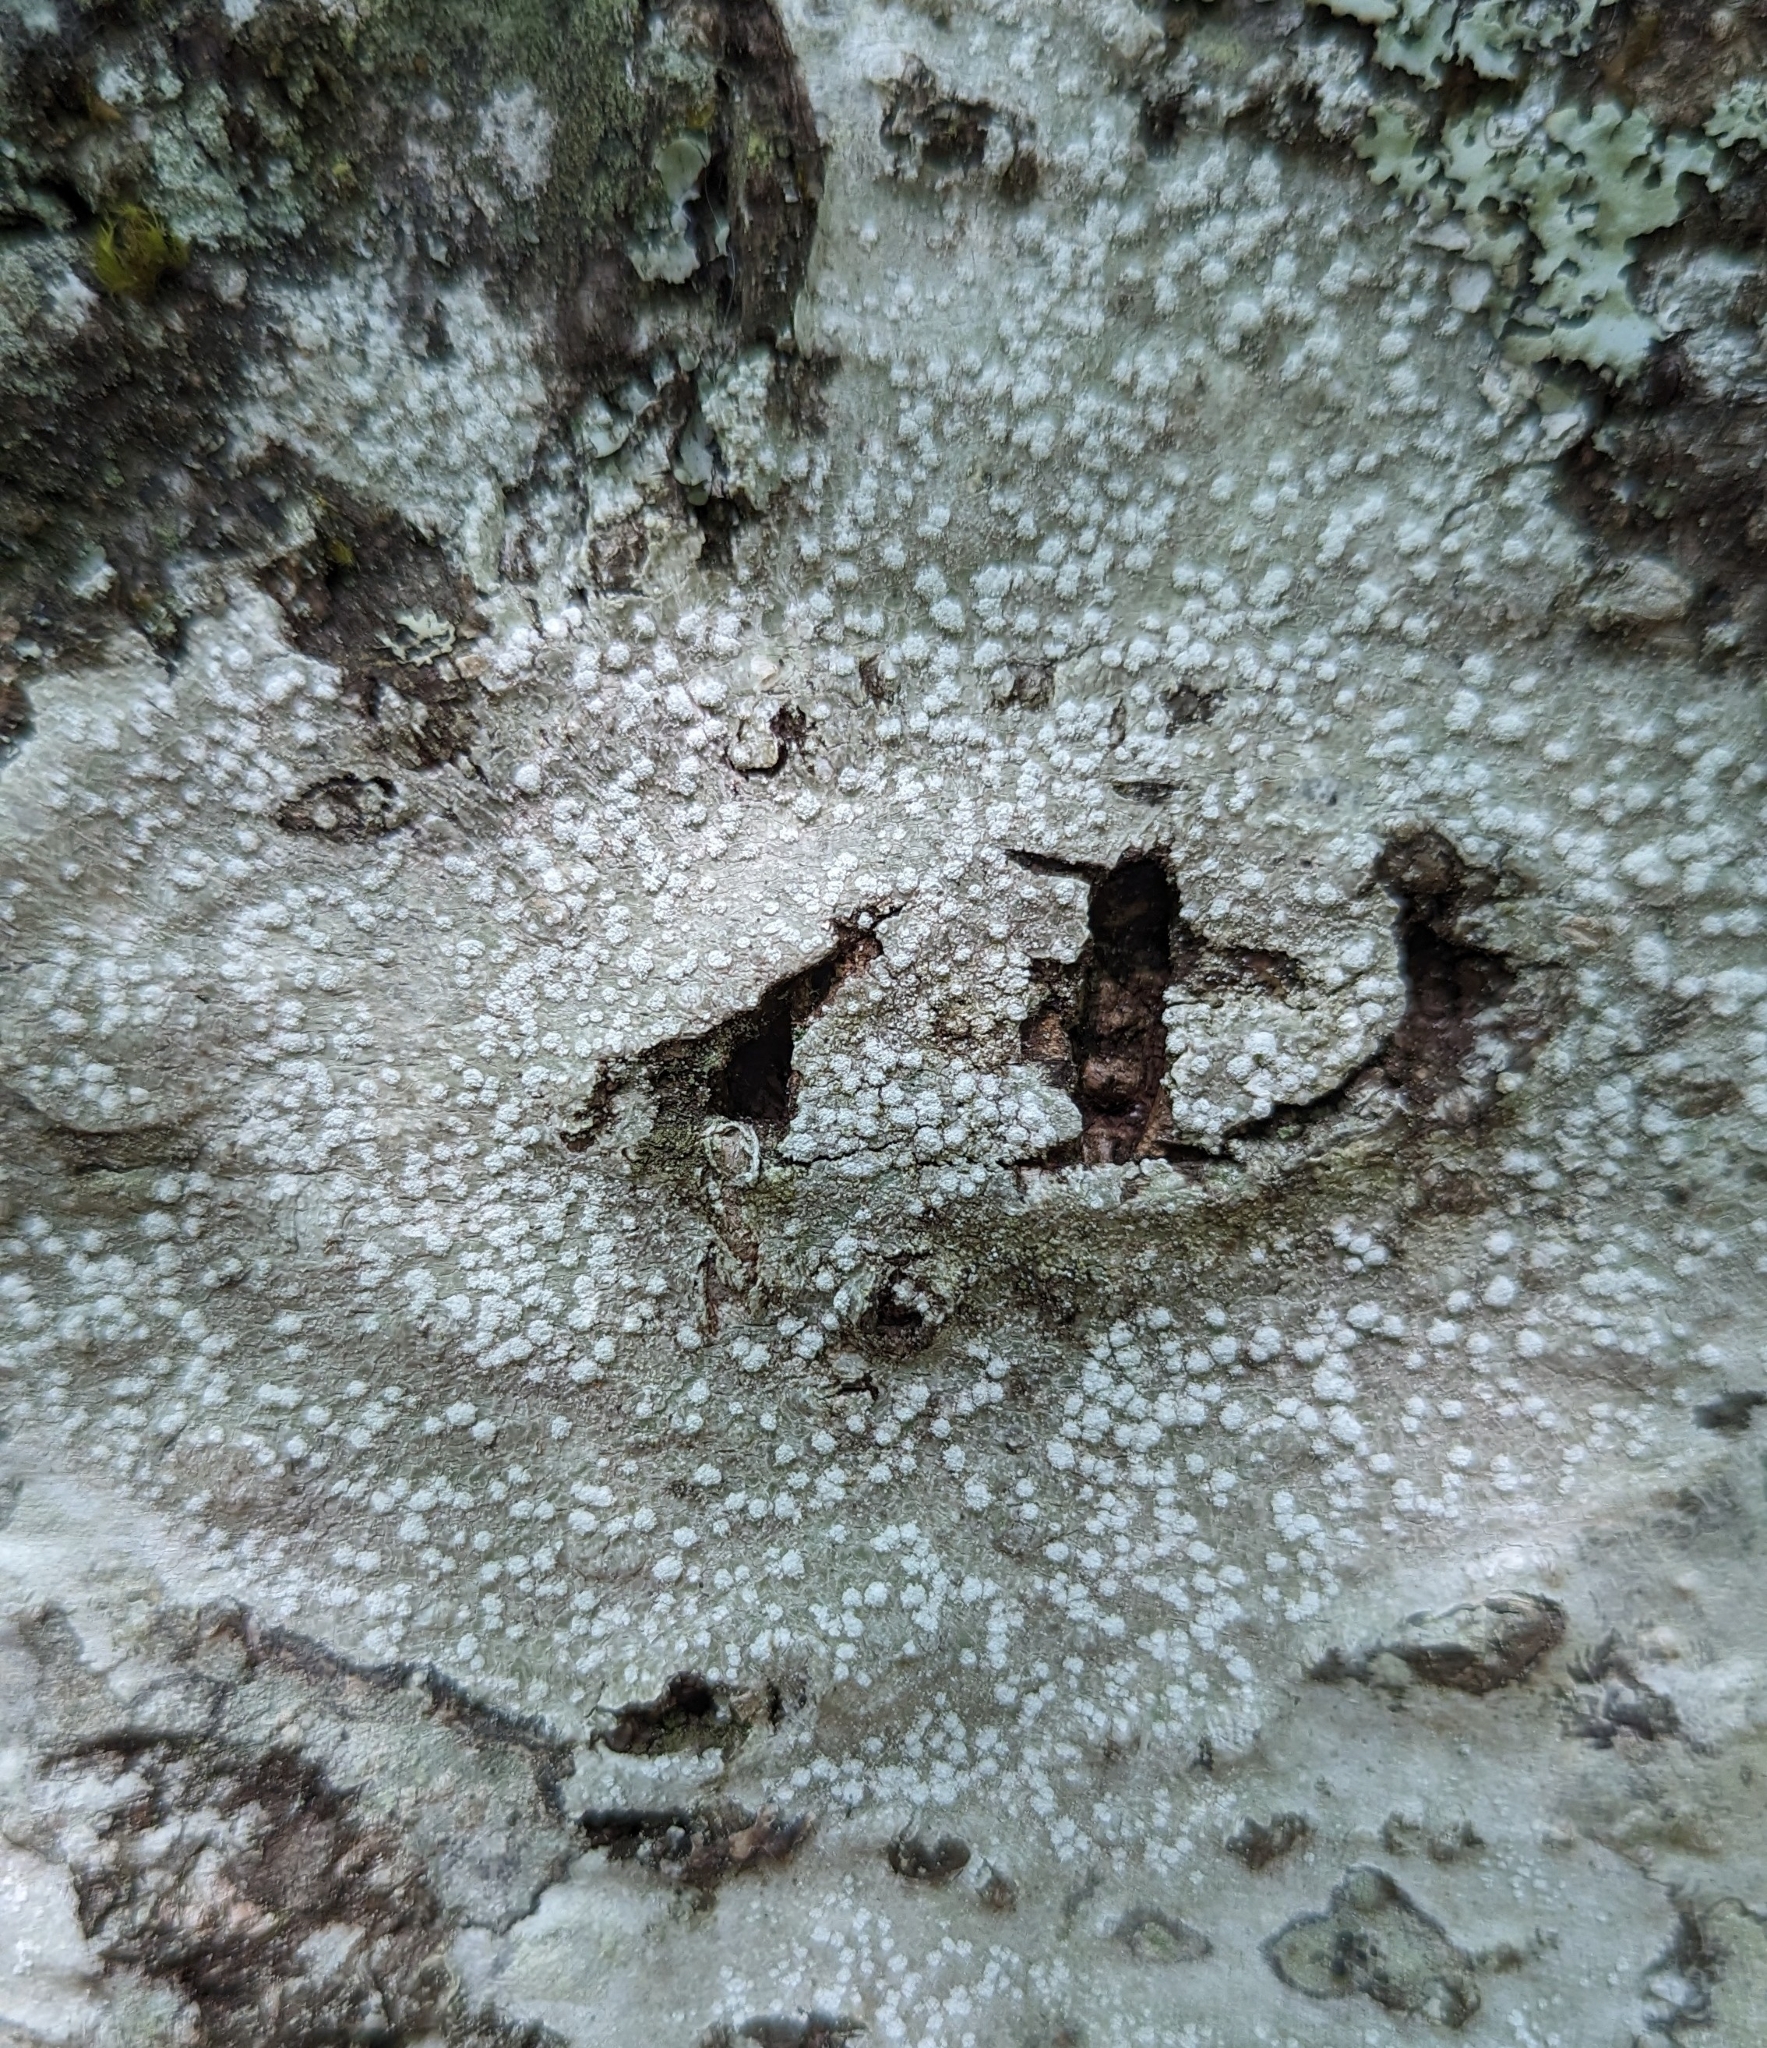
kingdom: Fungi
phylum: Ascomycota
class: Lecanoromycetes
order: Pertusariales
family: Pertusariaceae
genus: Lepra
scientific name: Lepra amara
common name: Bitter wart lichen
